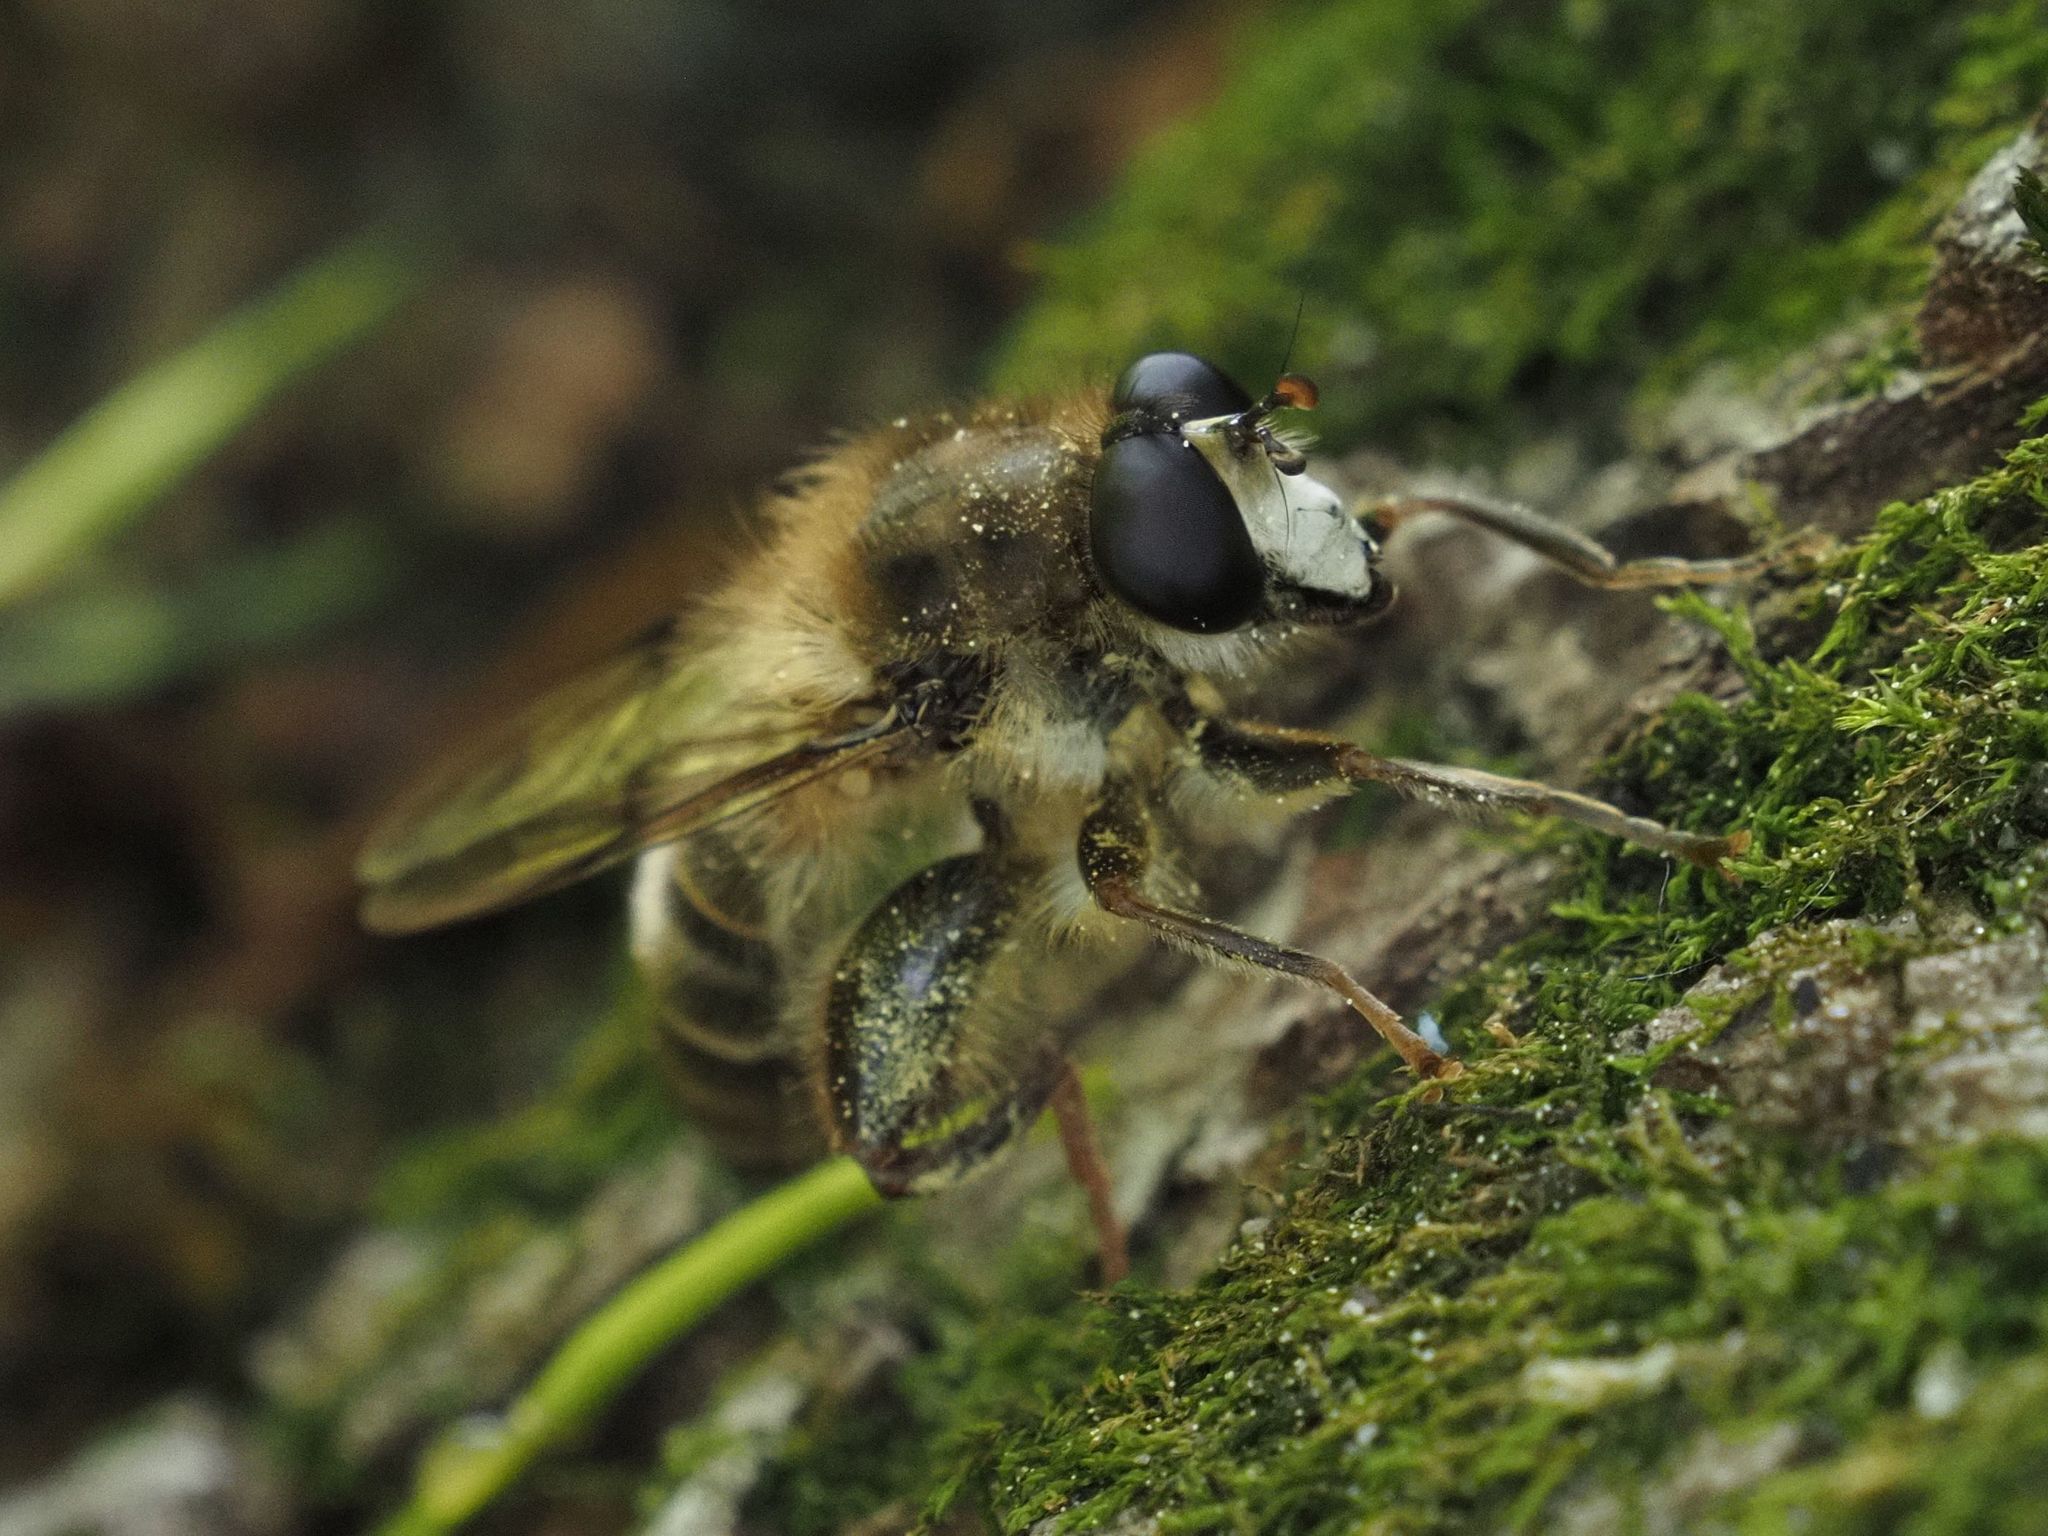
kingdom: Animalia
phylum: Arthropoda
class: Insecta
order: Diptera
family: Syrphidae
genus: Criorhina
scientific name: Criorhina pachymera
